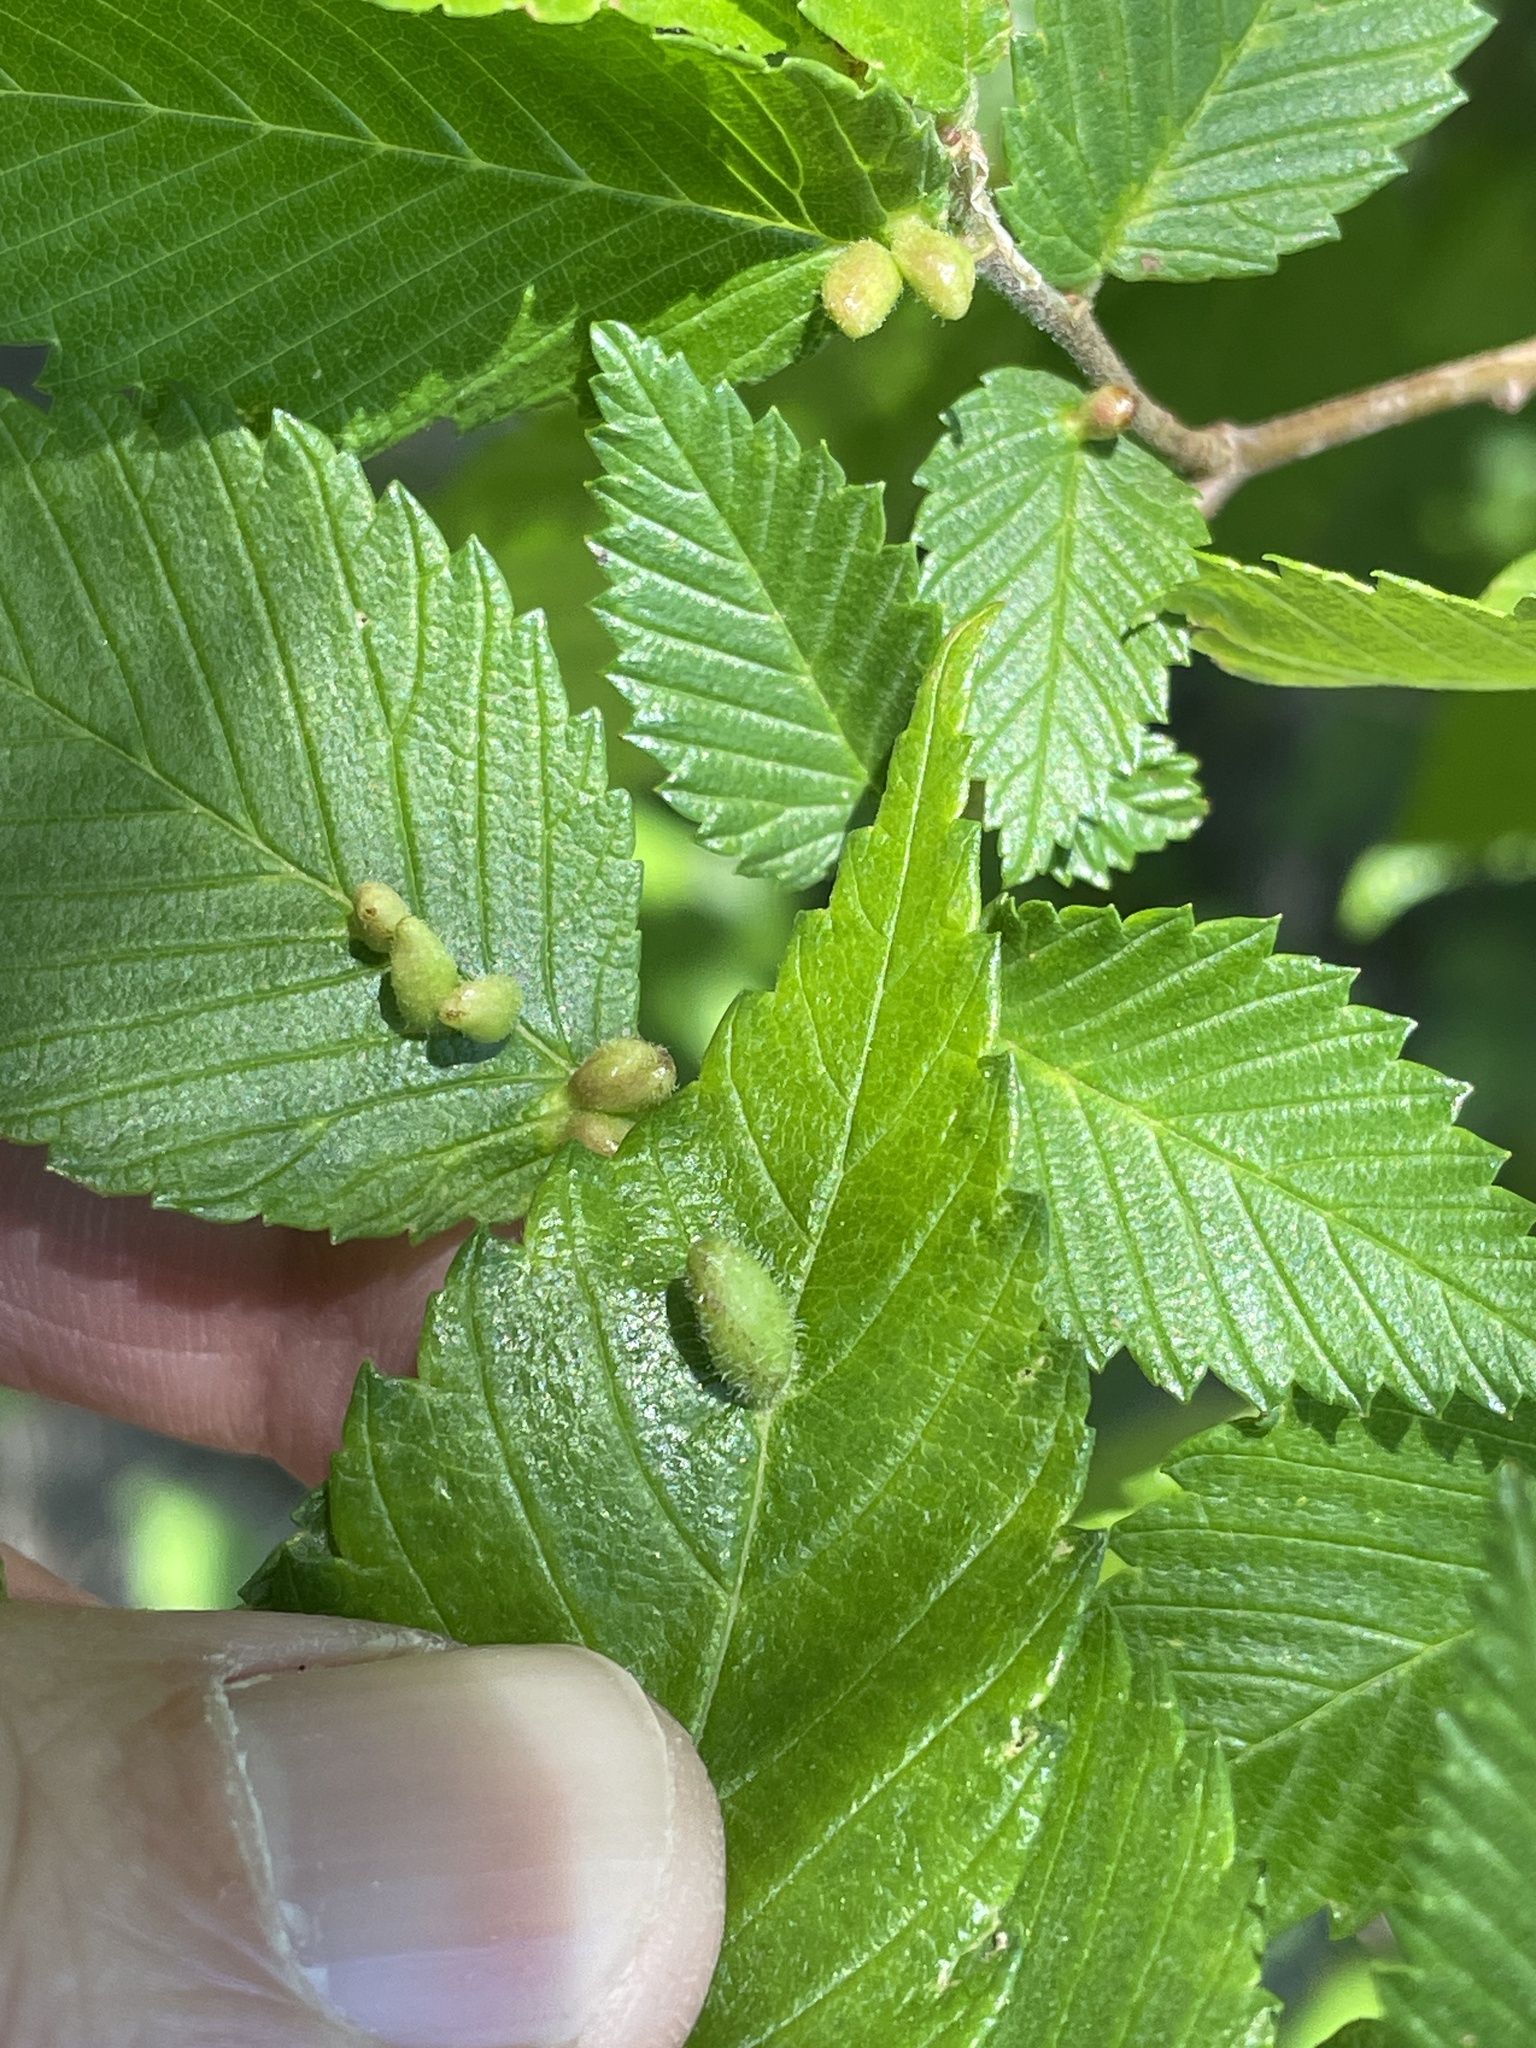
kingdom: Animalia
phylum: Arthropoda
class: Arachnida
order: Trombidiformes
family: Eriophyidae
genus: Aceria
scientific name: Aceria
